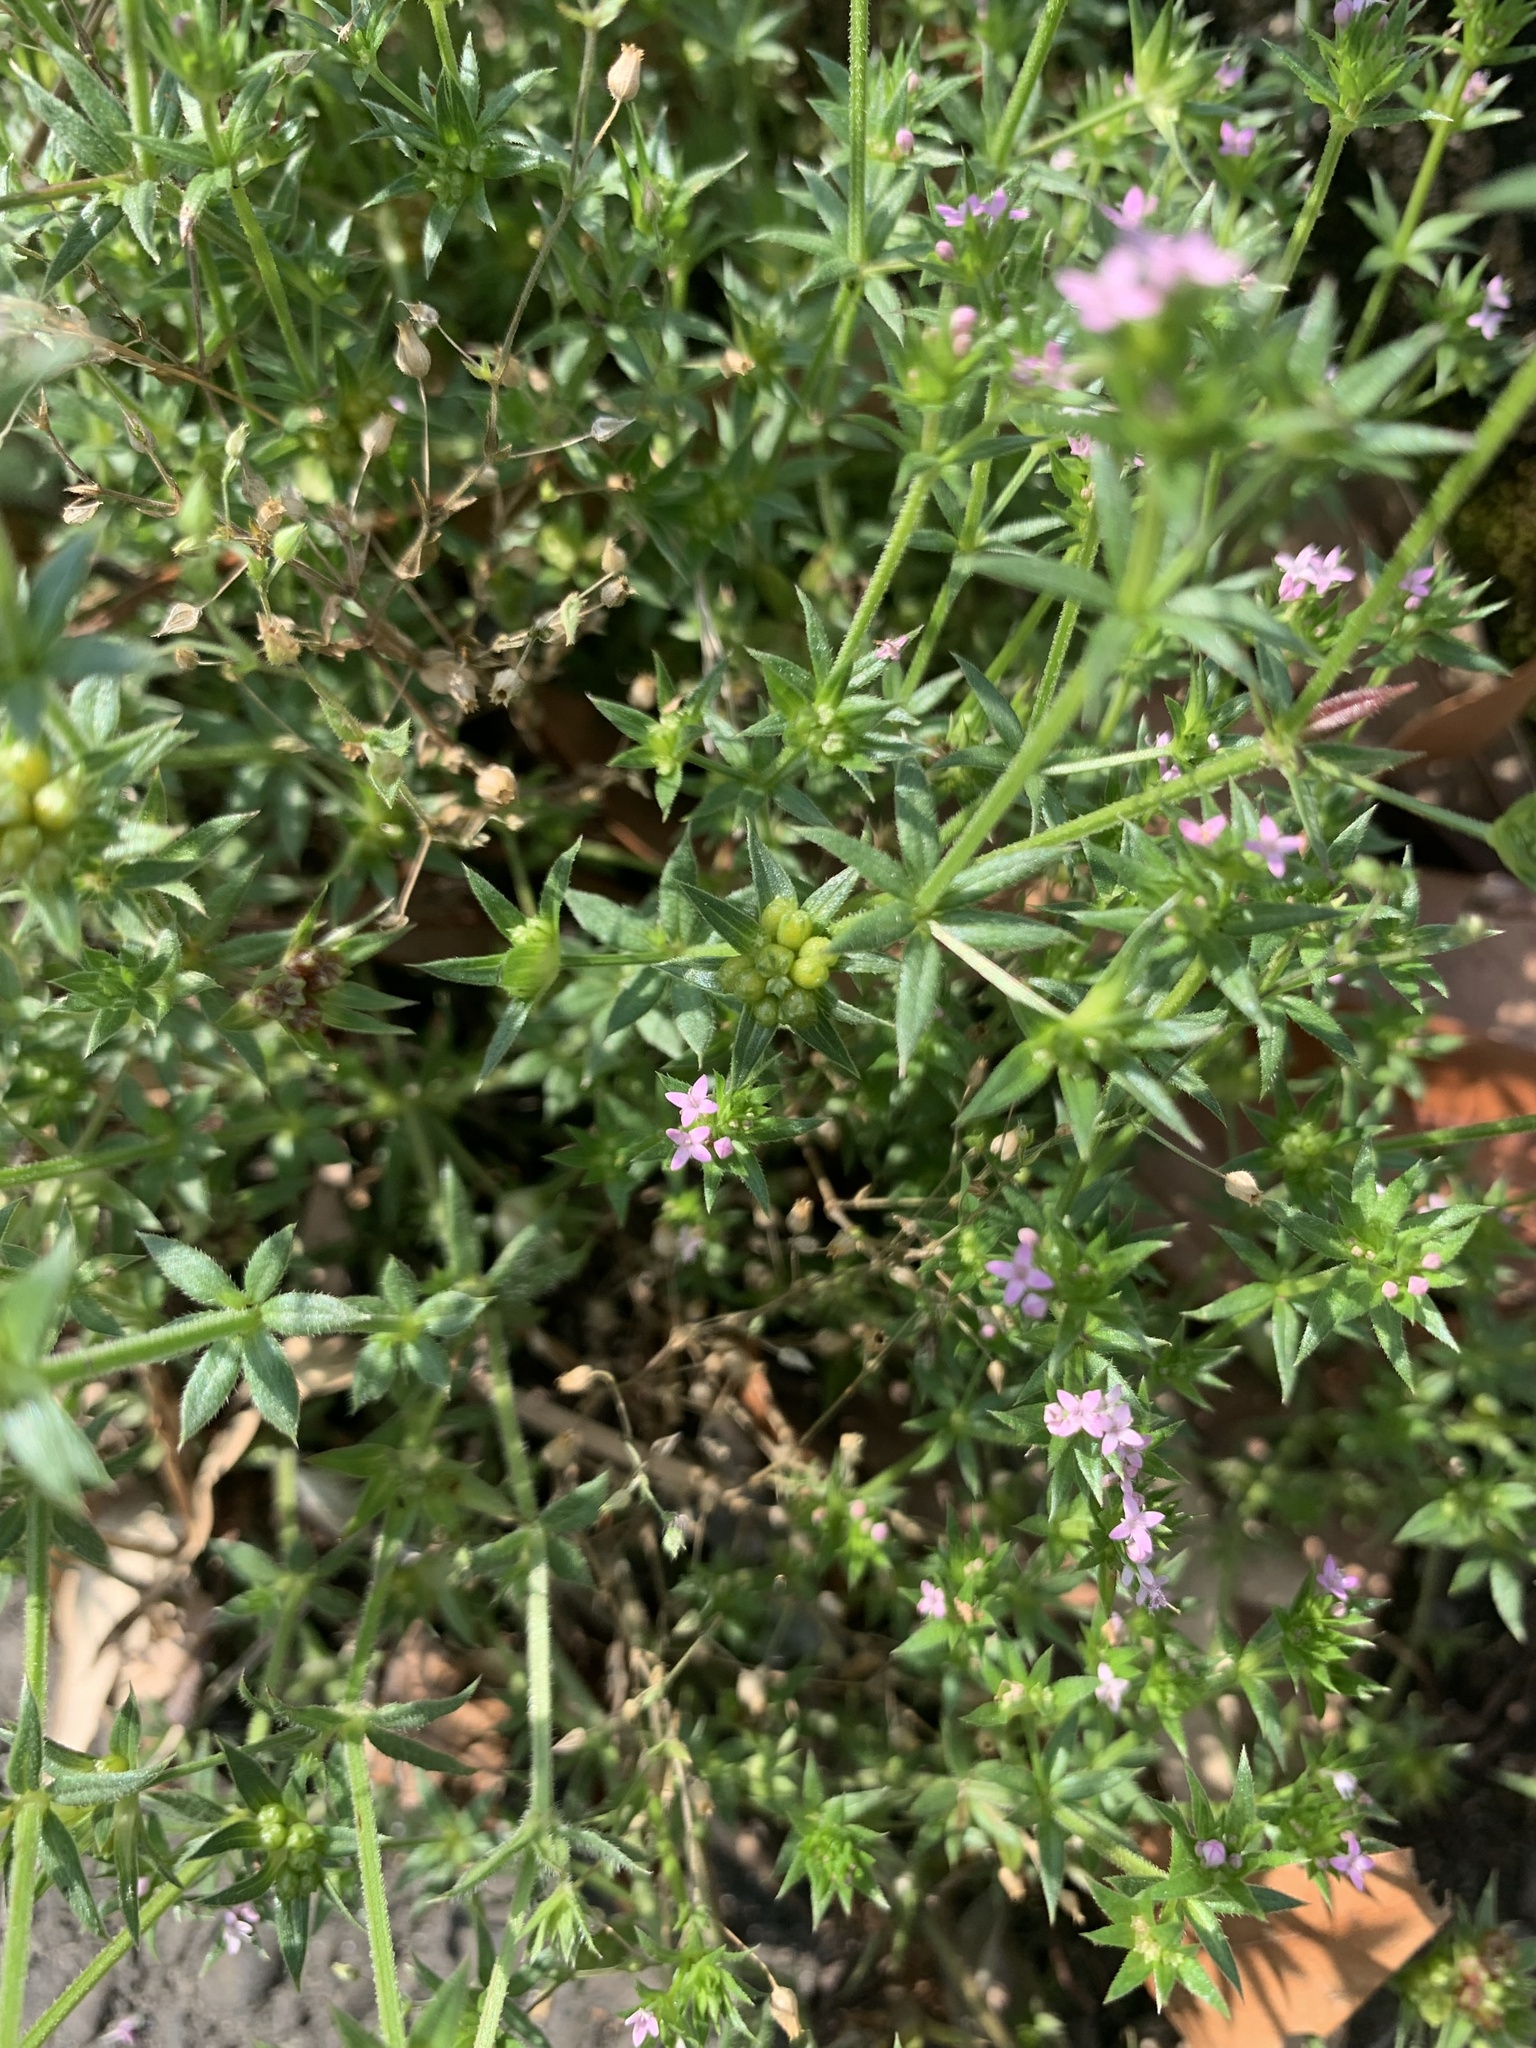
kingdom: Plantae
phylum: Tracheophyta
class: Magnoliopsida
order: Gentianales
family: Rubiaceae
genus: Sherardia
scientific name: Sherardia arvensis
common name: Field madder
